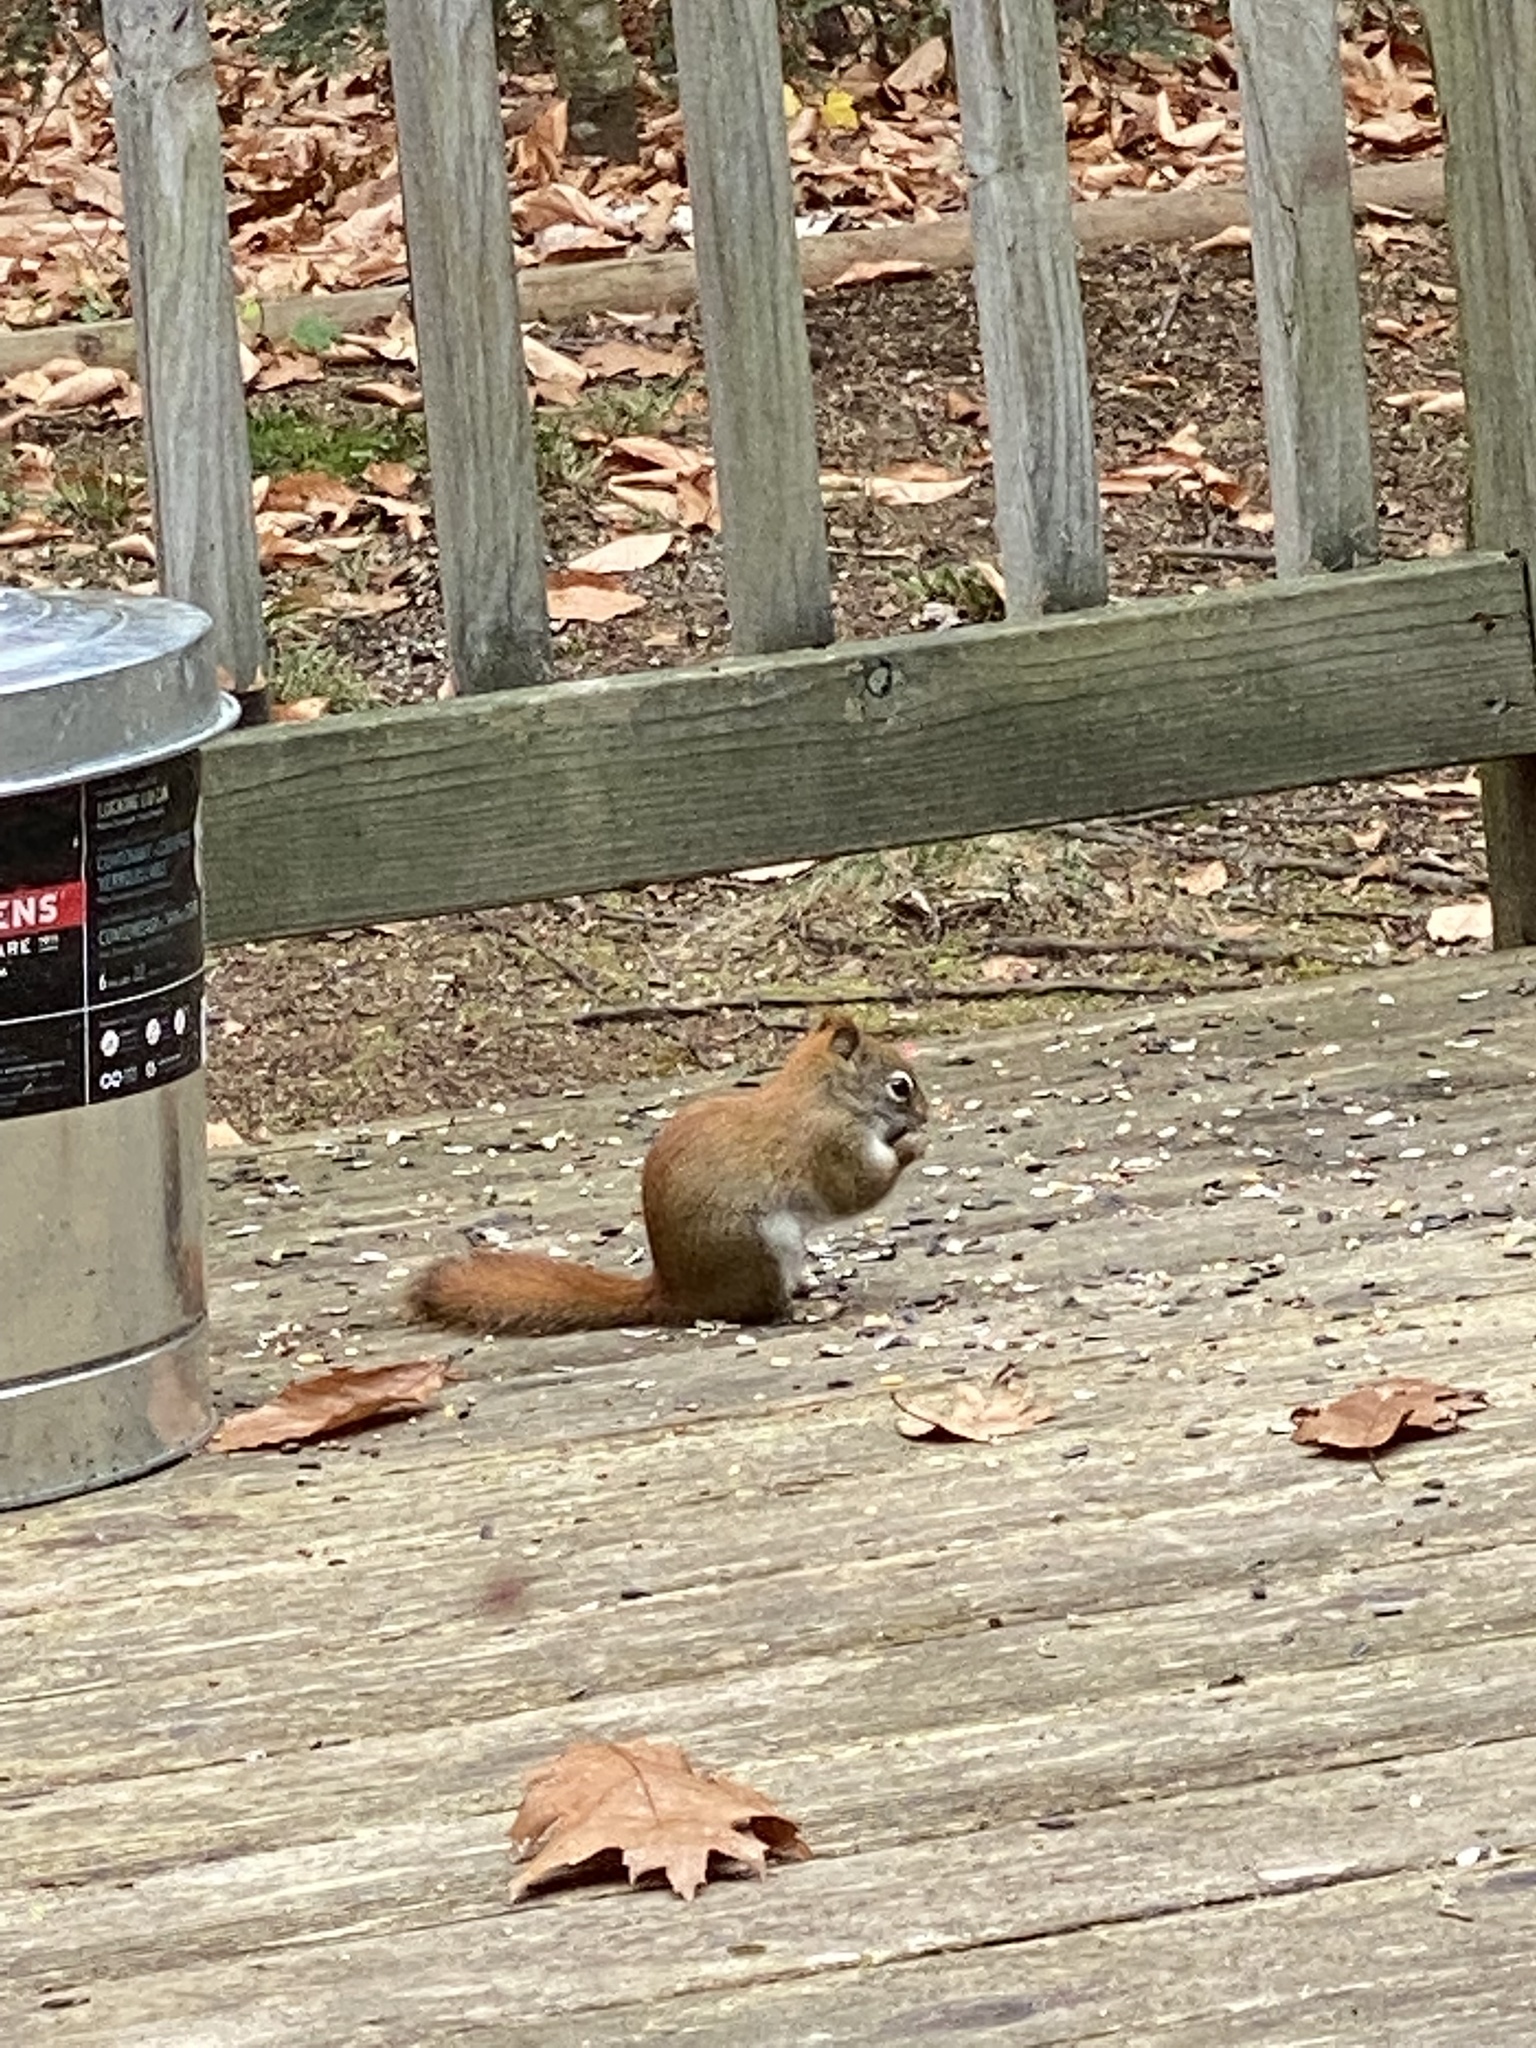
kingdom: Animalia
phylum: Chordata
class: Mammalia
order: Rodentia
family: Sciuridae
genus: Tamiasciurus
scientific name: Tamiasciurus hudsonicus
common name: Red squirrel
